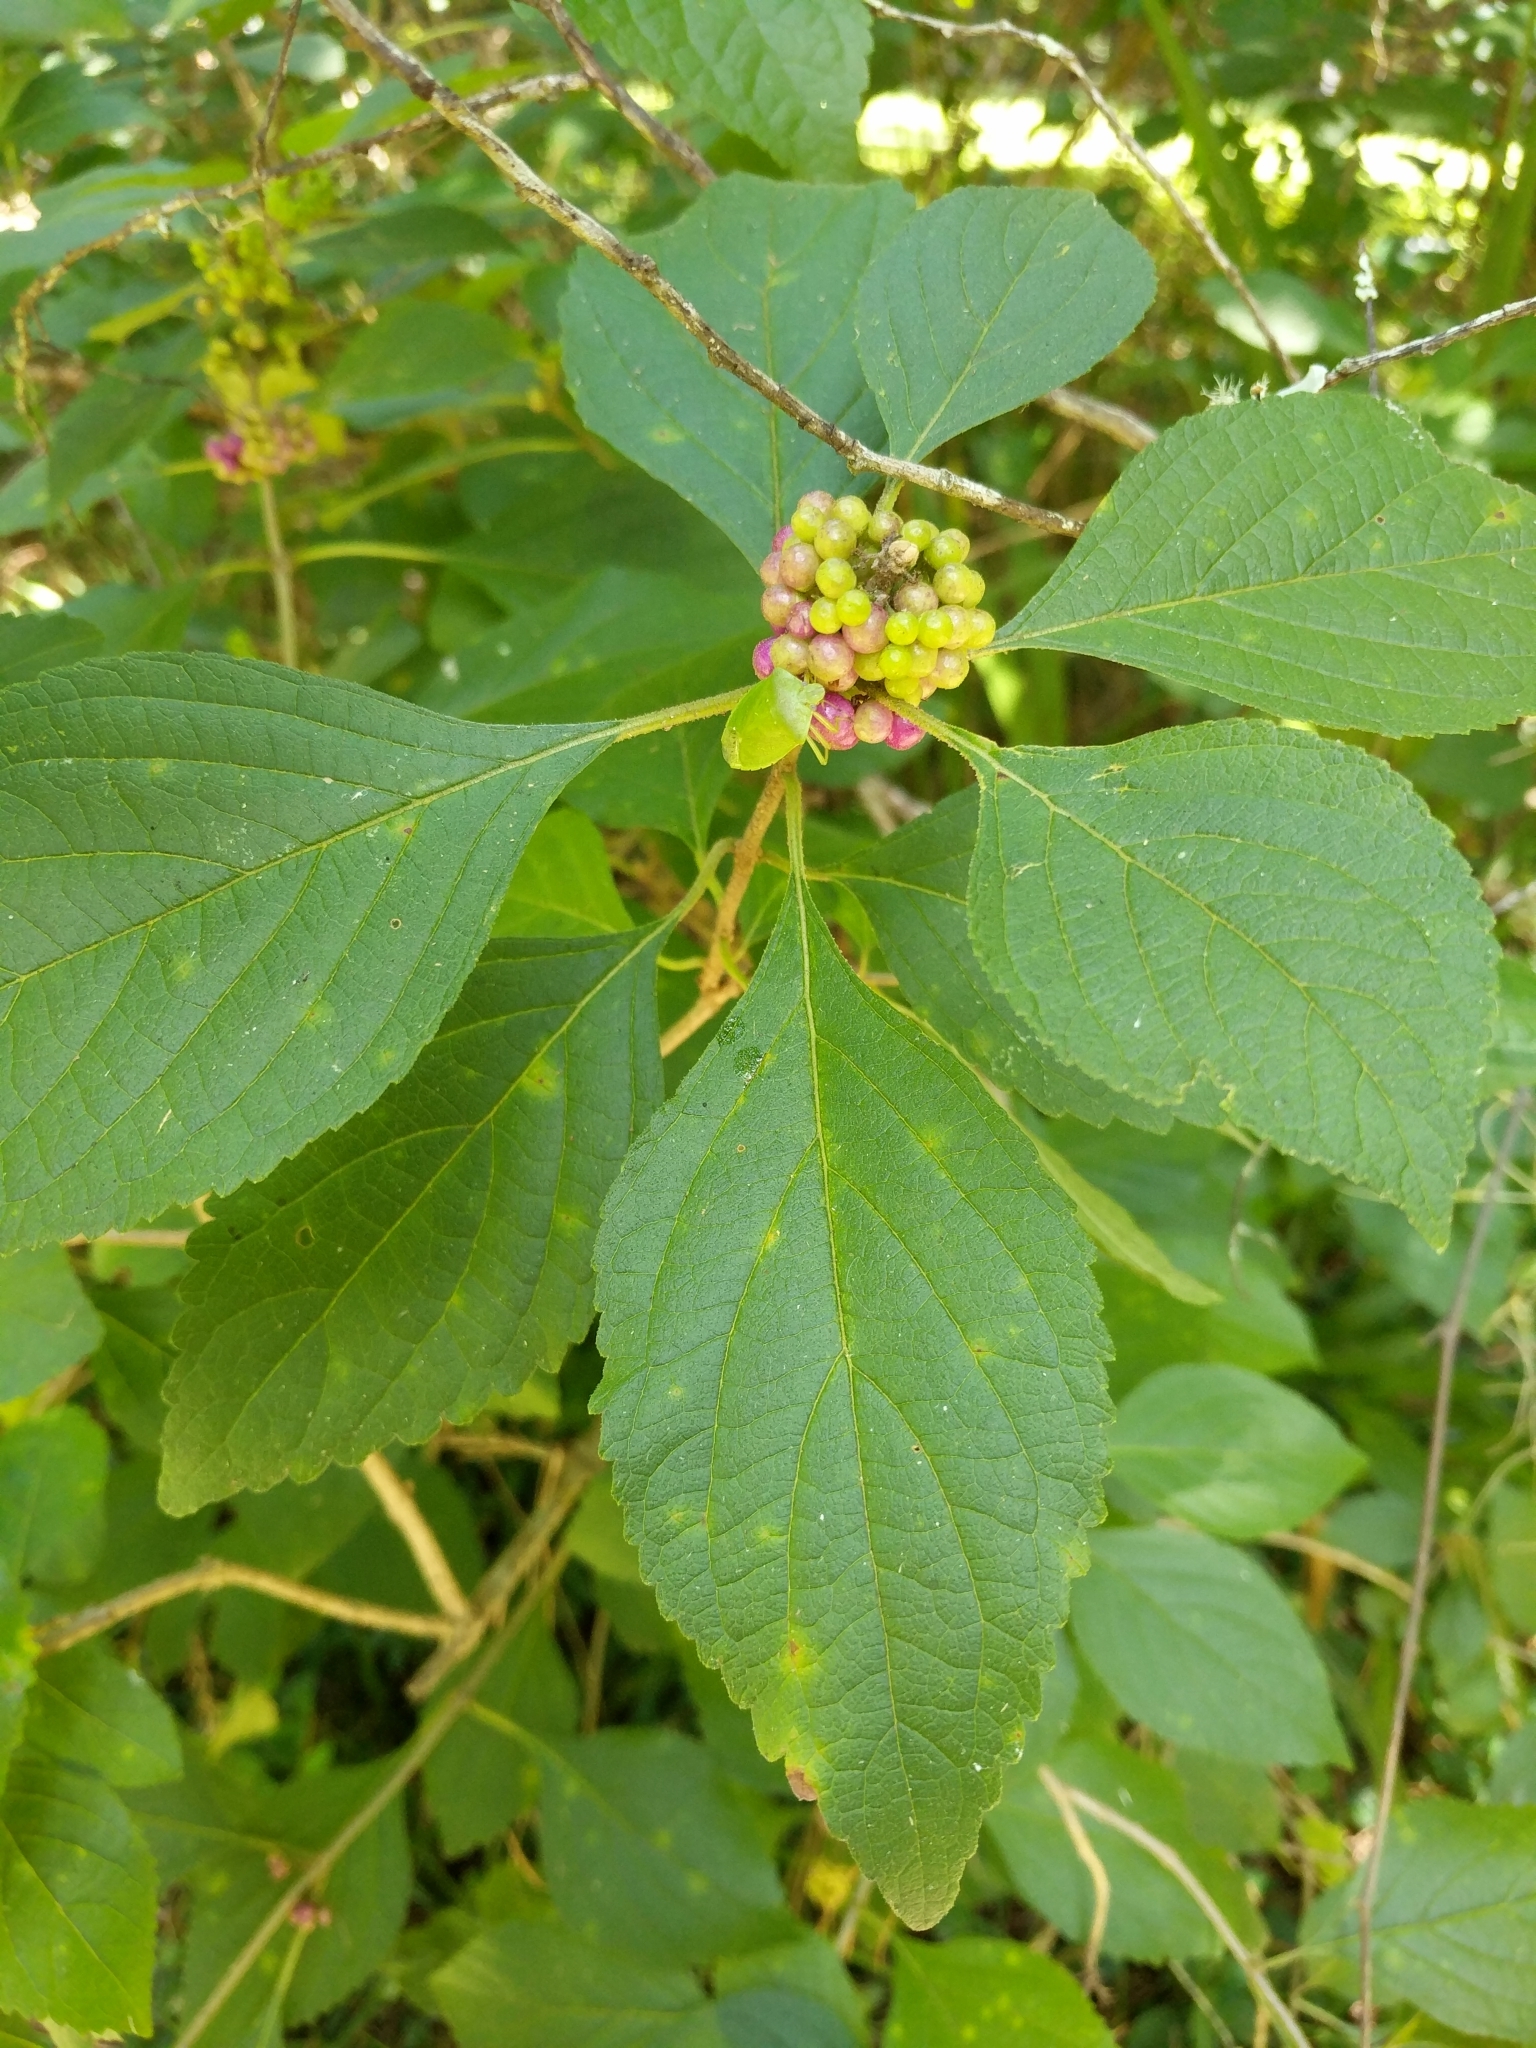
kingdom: Plantae
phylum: Tracheophyta
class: Magnoliopsida
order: Lamiales
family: Lamiaceae
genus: Callicarpa
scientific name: Callicarpa americana
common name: American beautyberry
